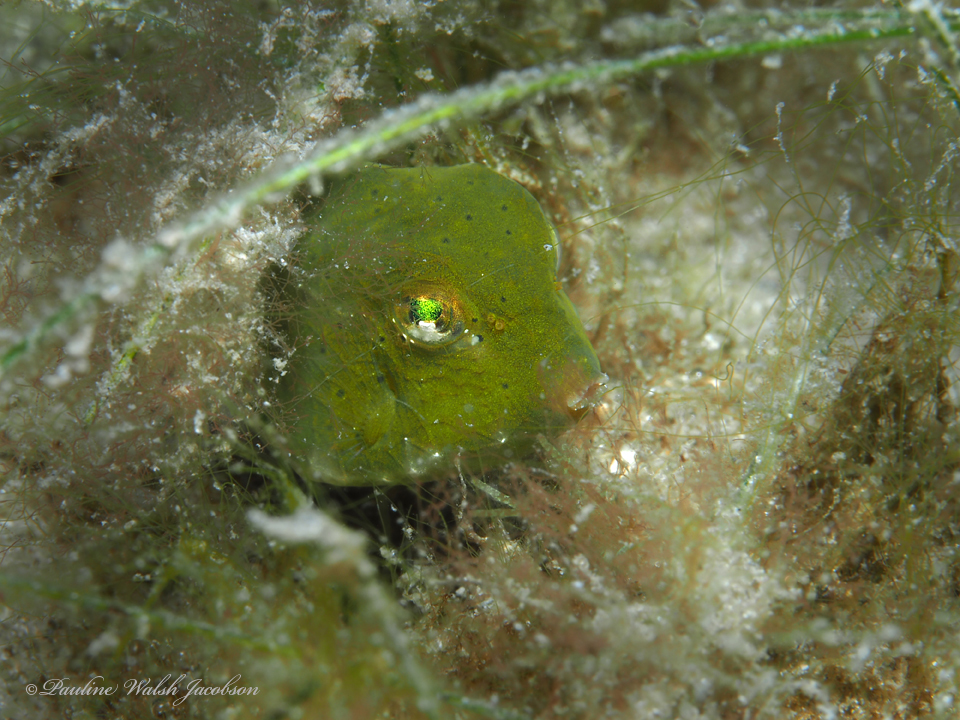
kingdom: Animalia
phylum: Chordata
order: Tetraodontiformes
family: Ostraciidae
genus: Lactophrys
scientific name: Lactophrys trigonus
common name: Buffalo trunkfish
